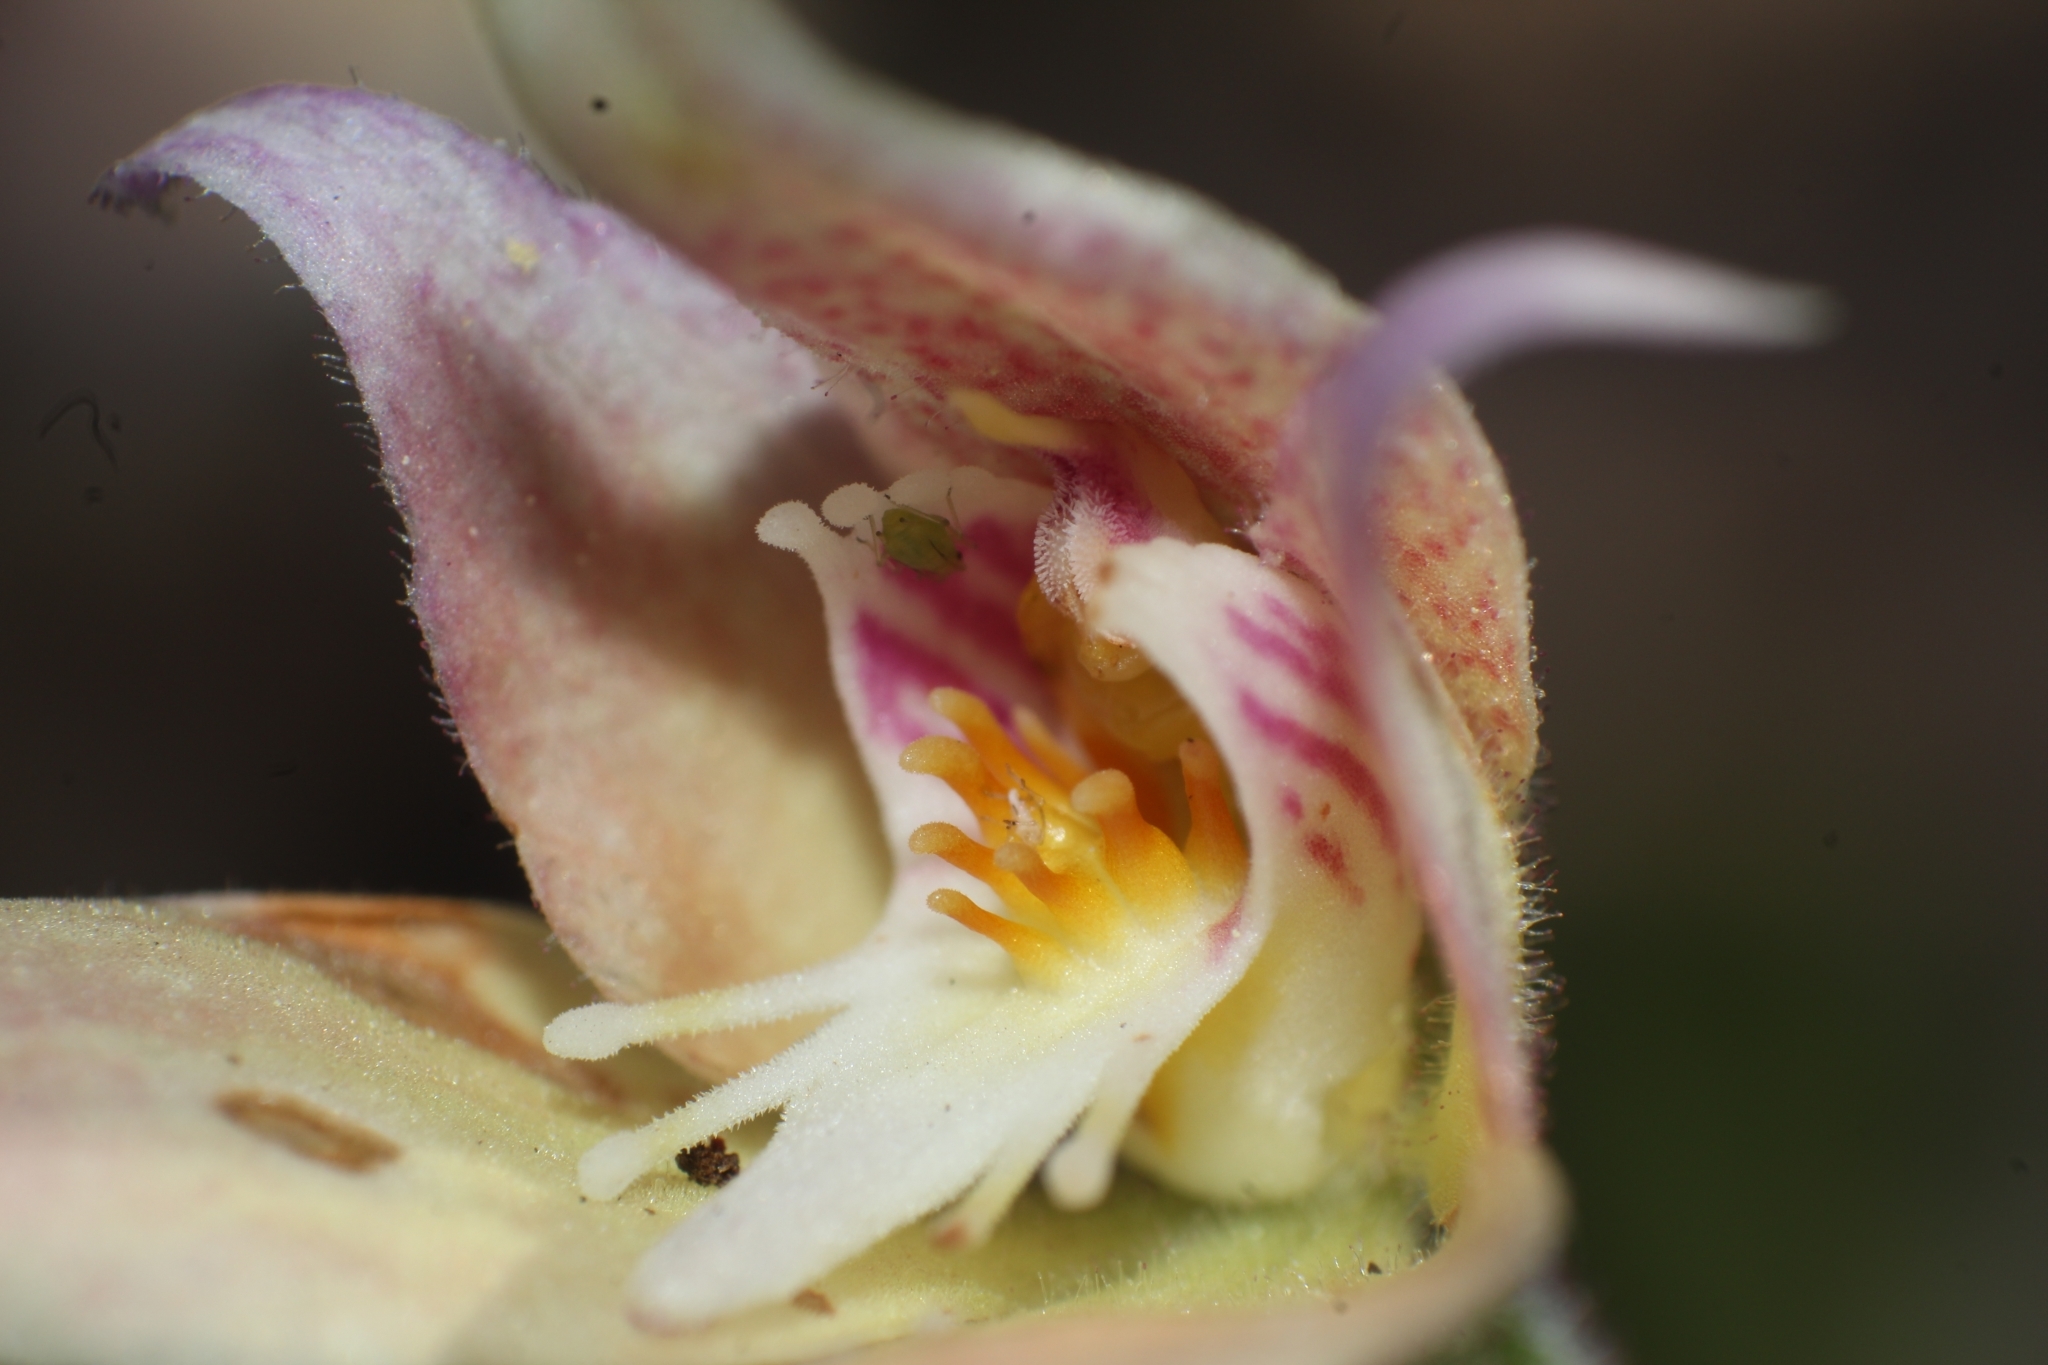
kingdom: Plantae
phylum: Tracheophyta
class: Liliopsida
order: Asparagales
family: Orchidaceae
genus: Caladenia
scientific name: Caladenia spectabilis
